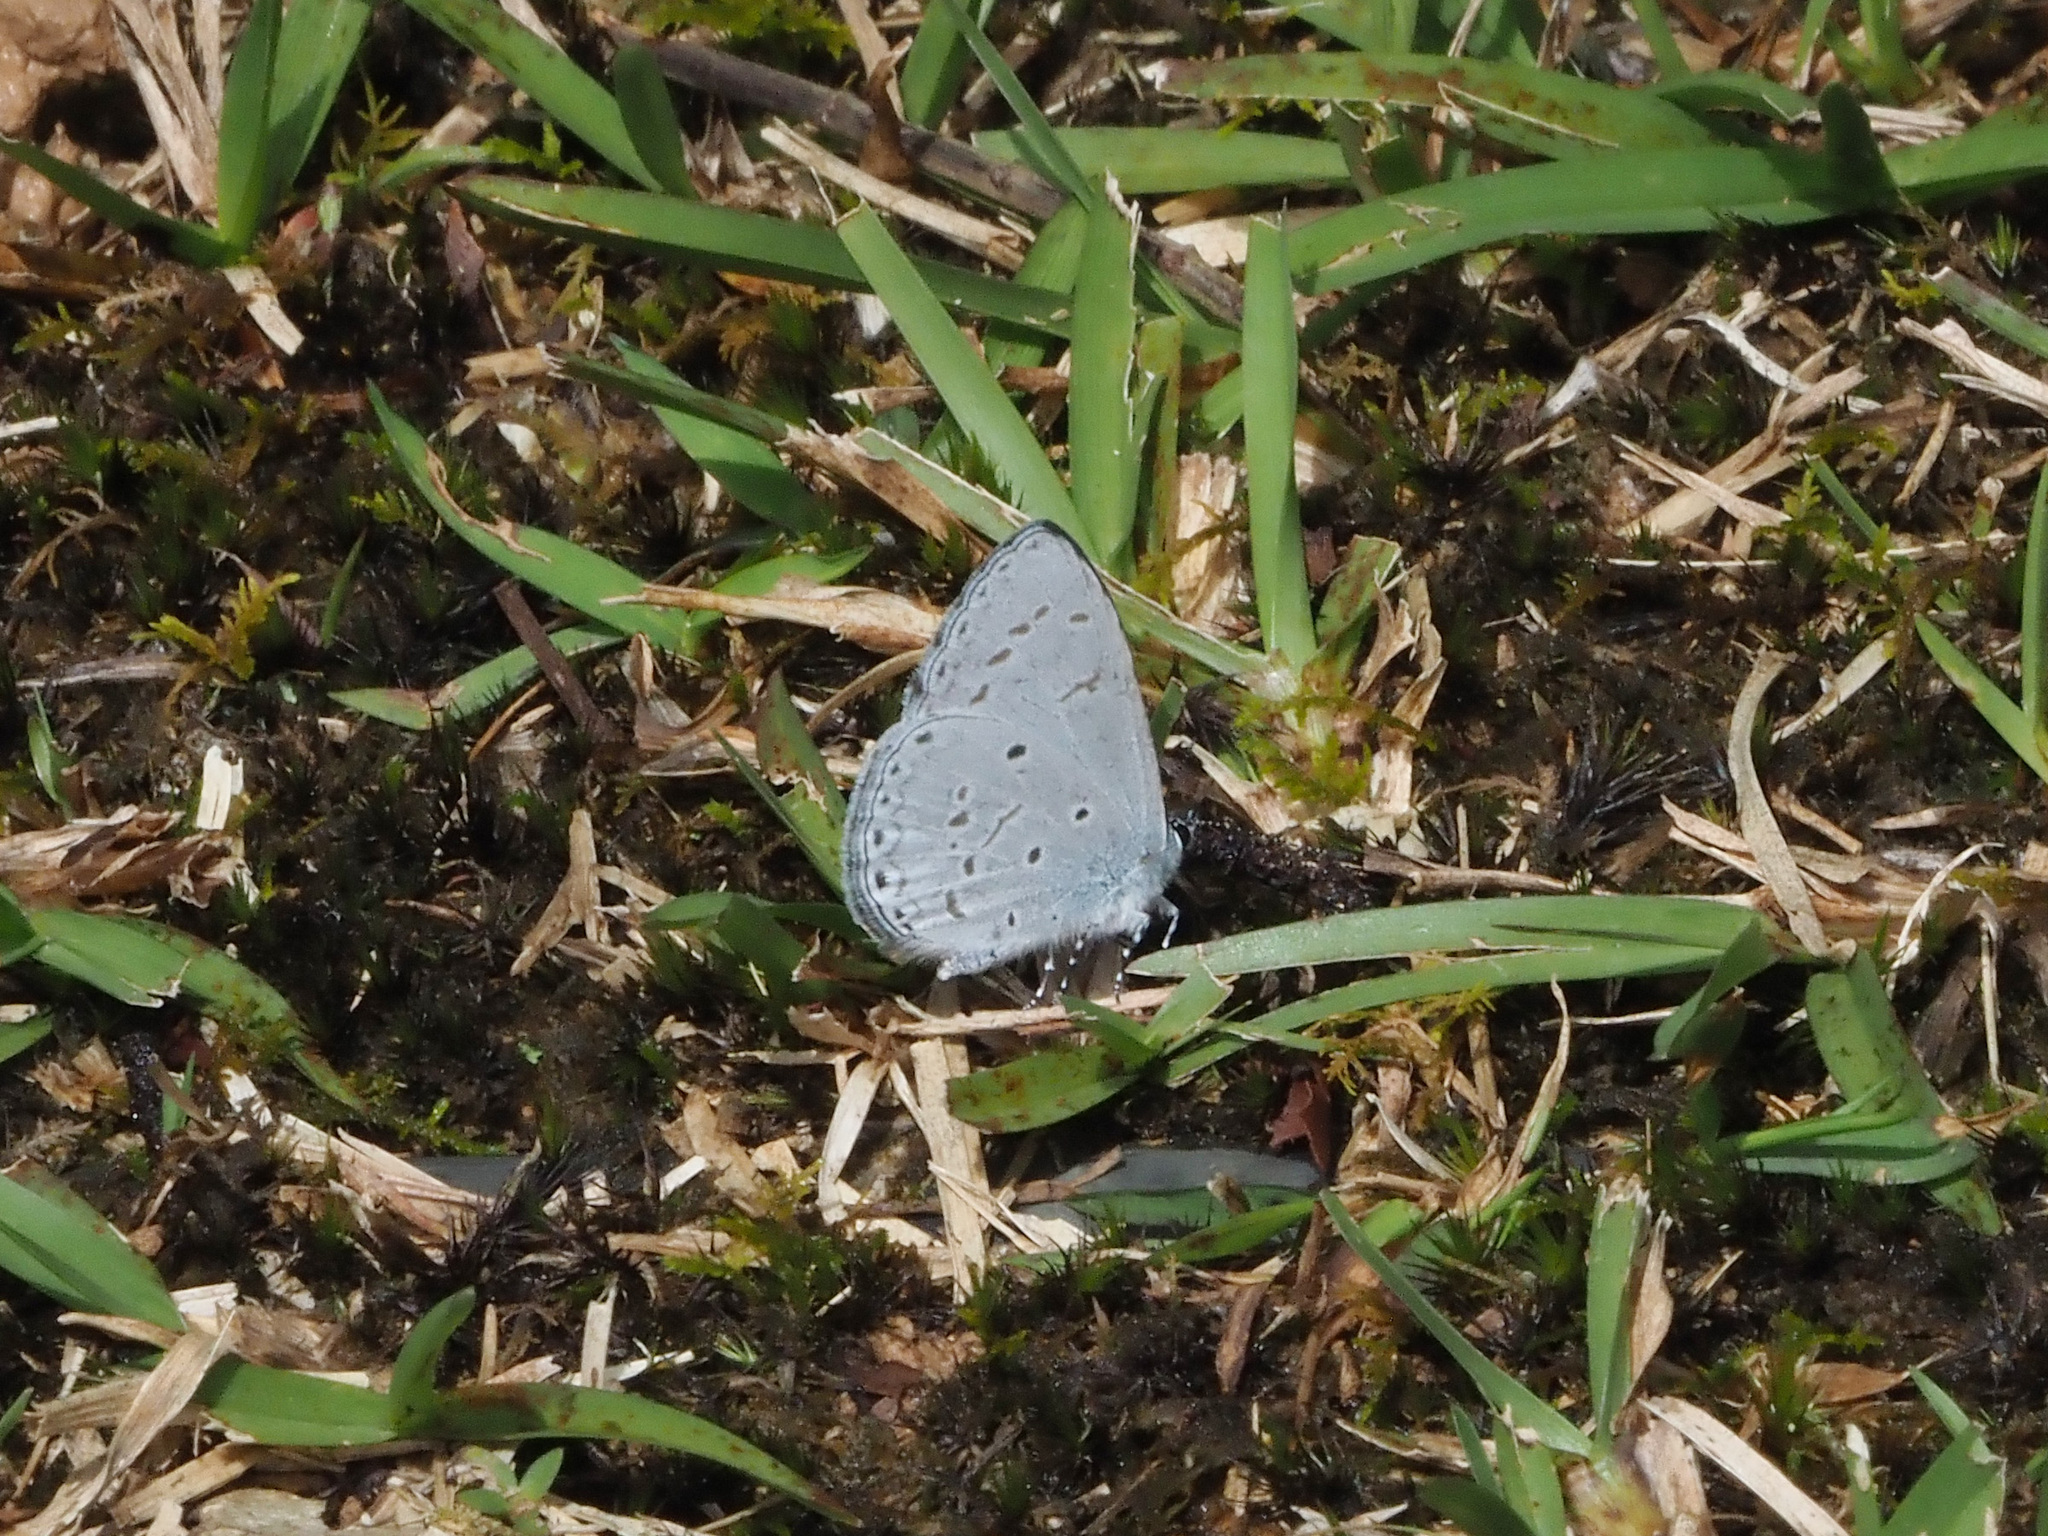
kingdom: Animalia
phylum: Arthropoda
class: Insecta
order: Lepidoptera
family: Lycaenidae
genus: Udara
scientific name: Udara
